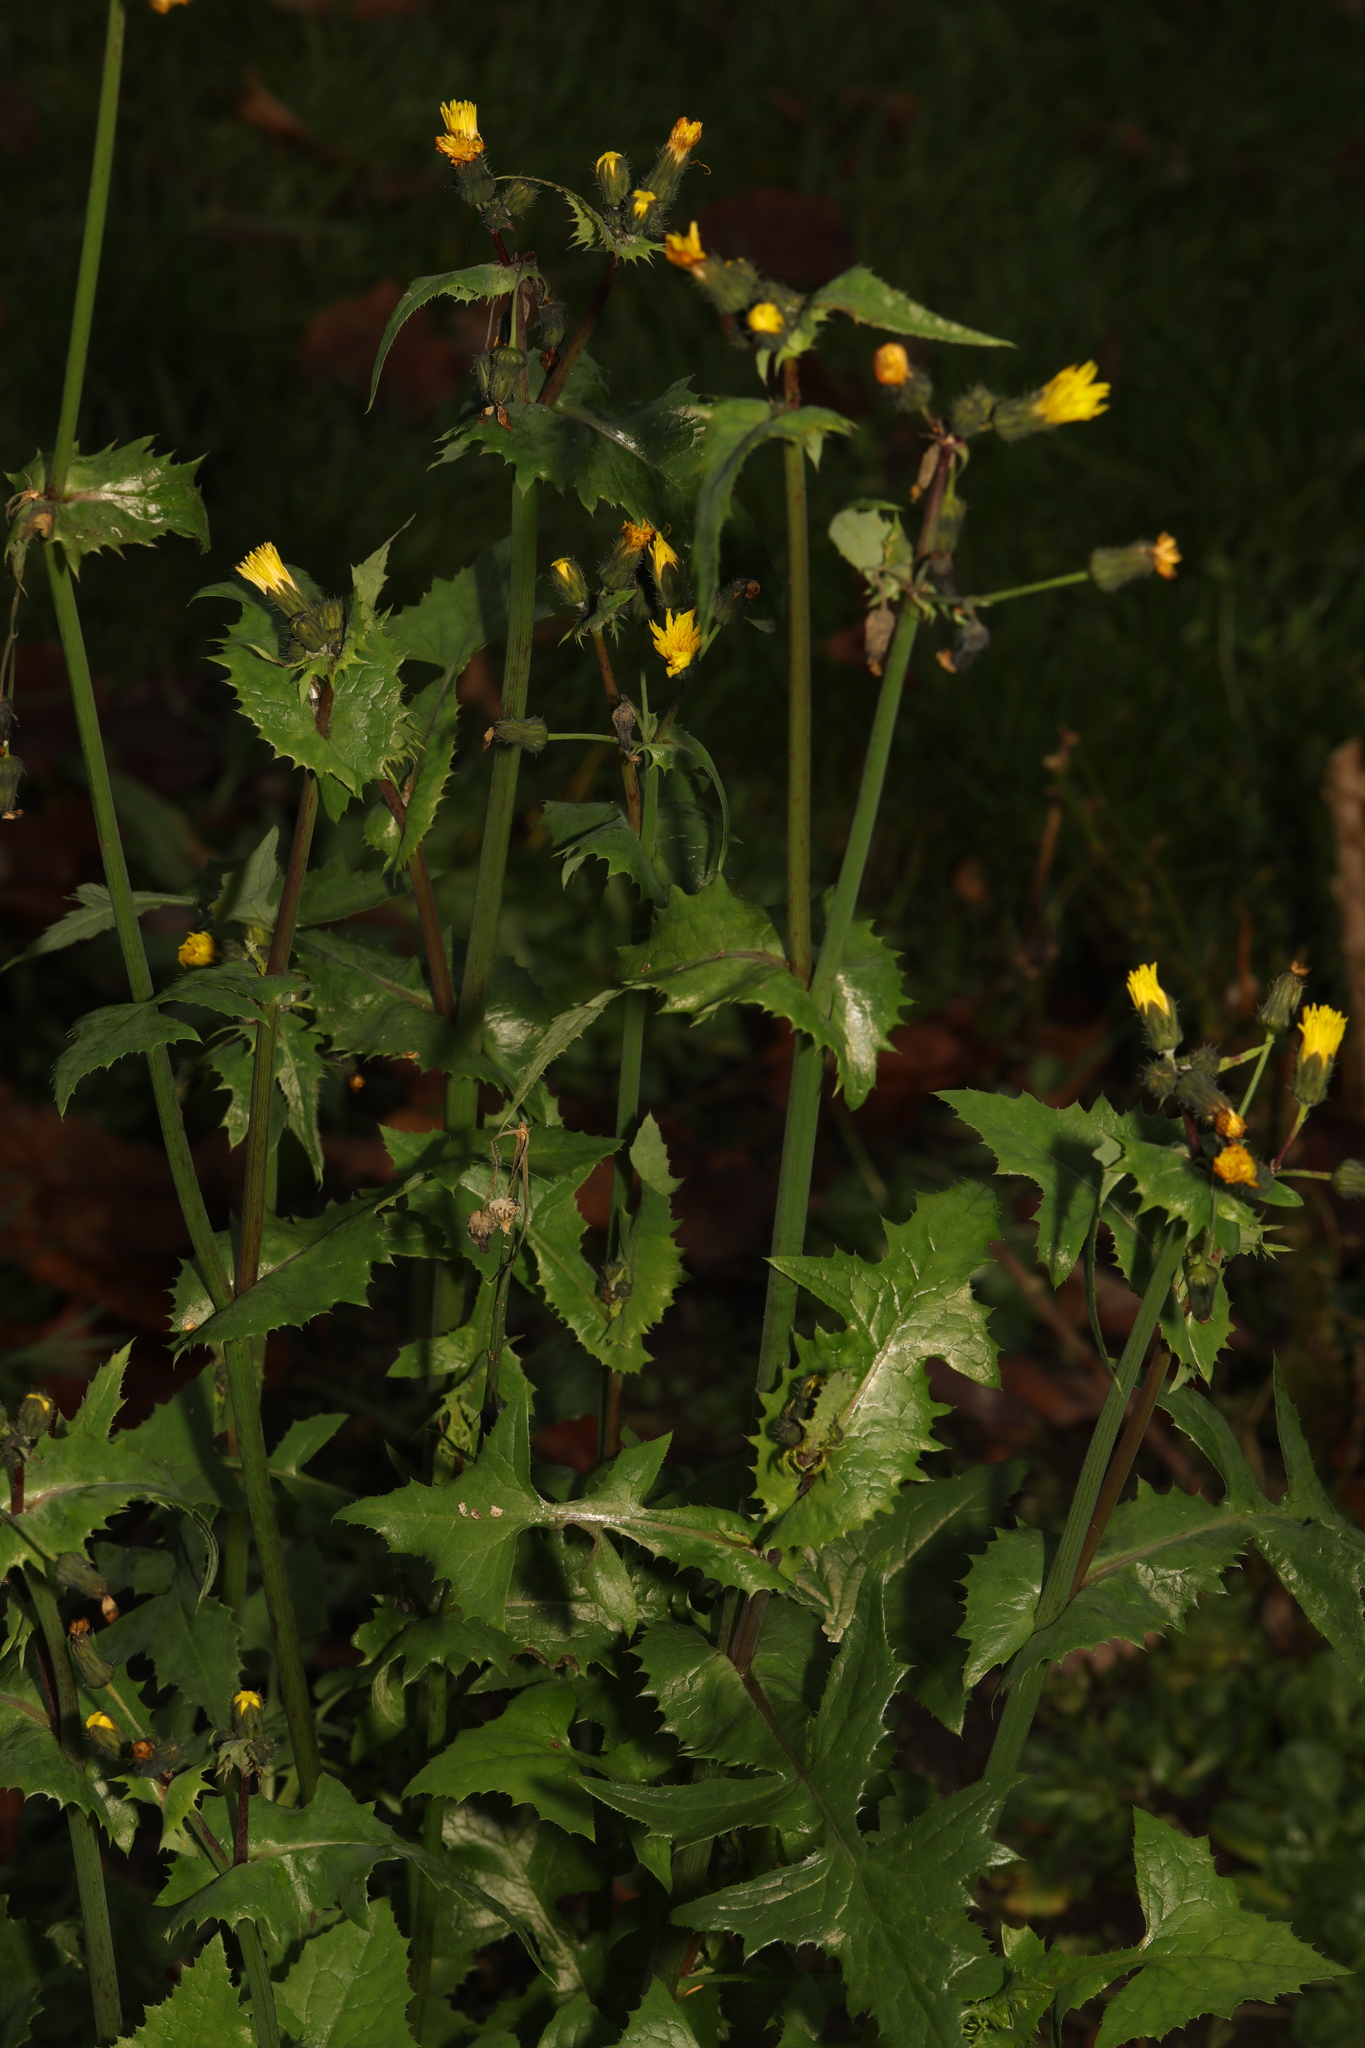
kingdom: Plantae
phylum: Tracheophyta
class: Magnoliopsida
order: Asterales
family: Asteraceae
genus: Sonchus
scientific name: Sonchus oleraceus
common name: Common sowthistle
